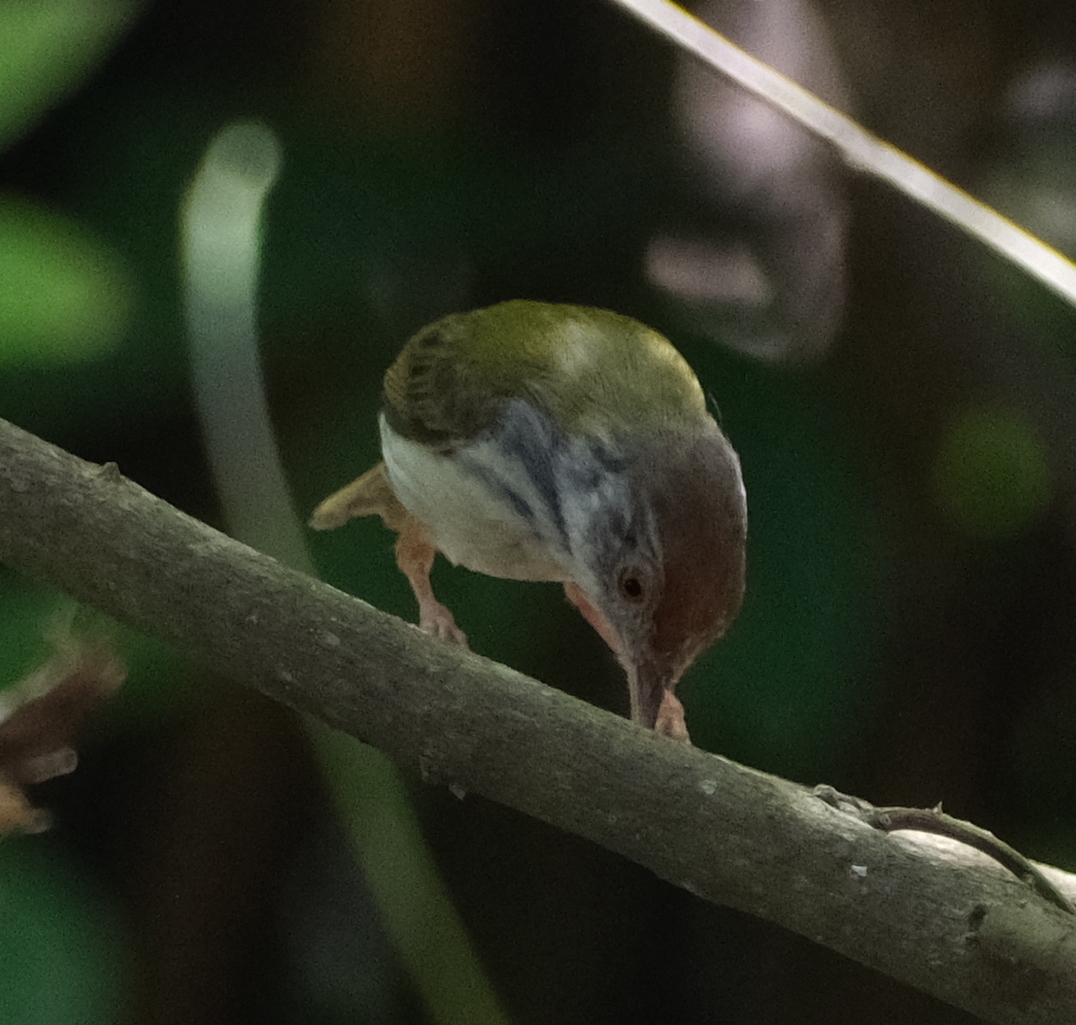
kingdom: Animalia
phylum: Chordata
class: Aves
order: Passeriformes
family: Cisticolidae
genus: Orthotomus
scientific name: Orthotomus sutorius
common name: Common tailorbird
